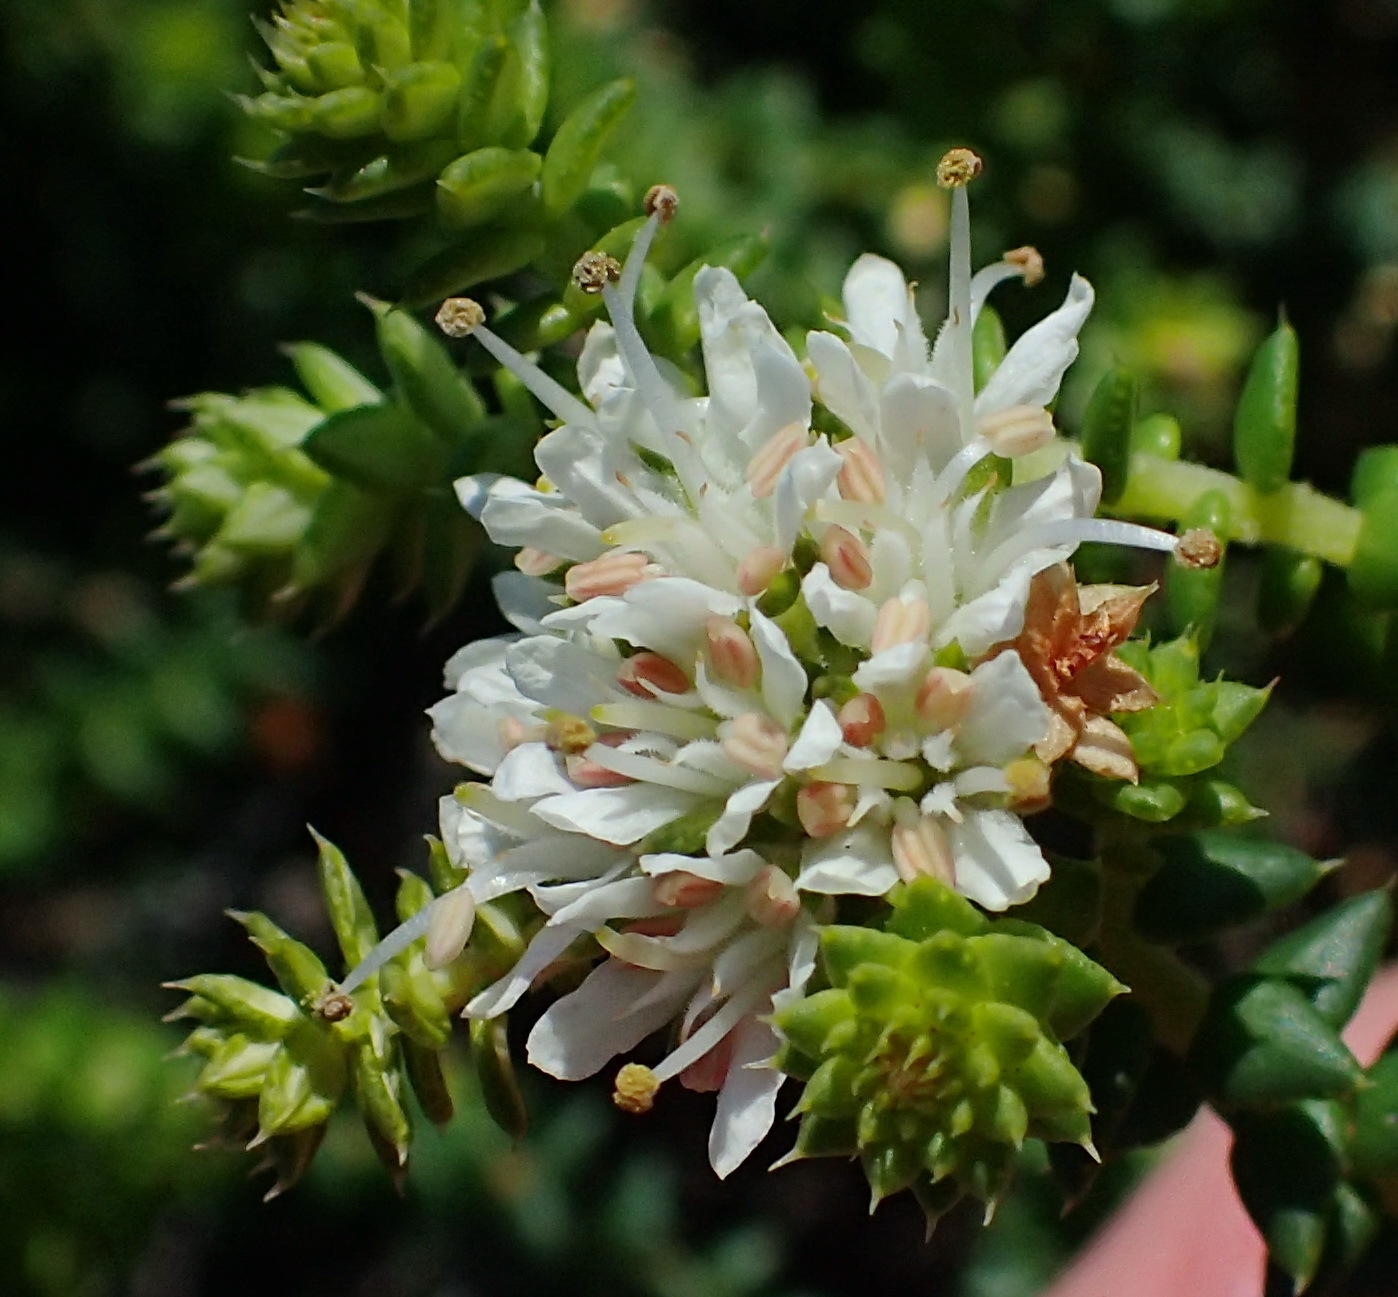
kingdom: Plantae
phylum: Tracheophyta
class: Magnoliopsida
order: Sapindales
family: Rutaceae
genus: Agathosma
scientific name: Agathosma apiculata
